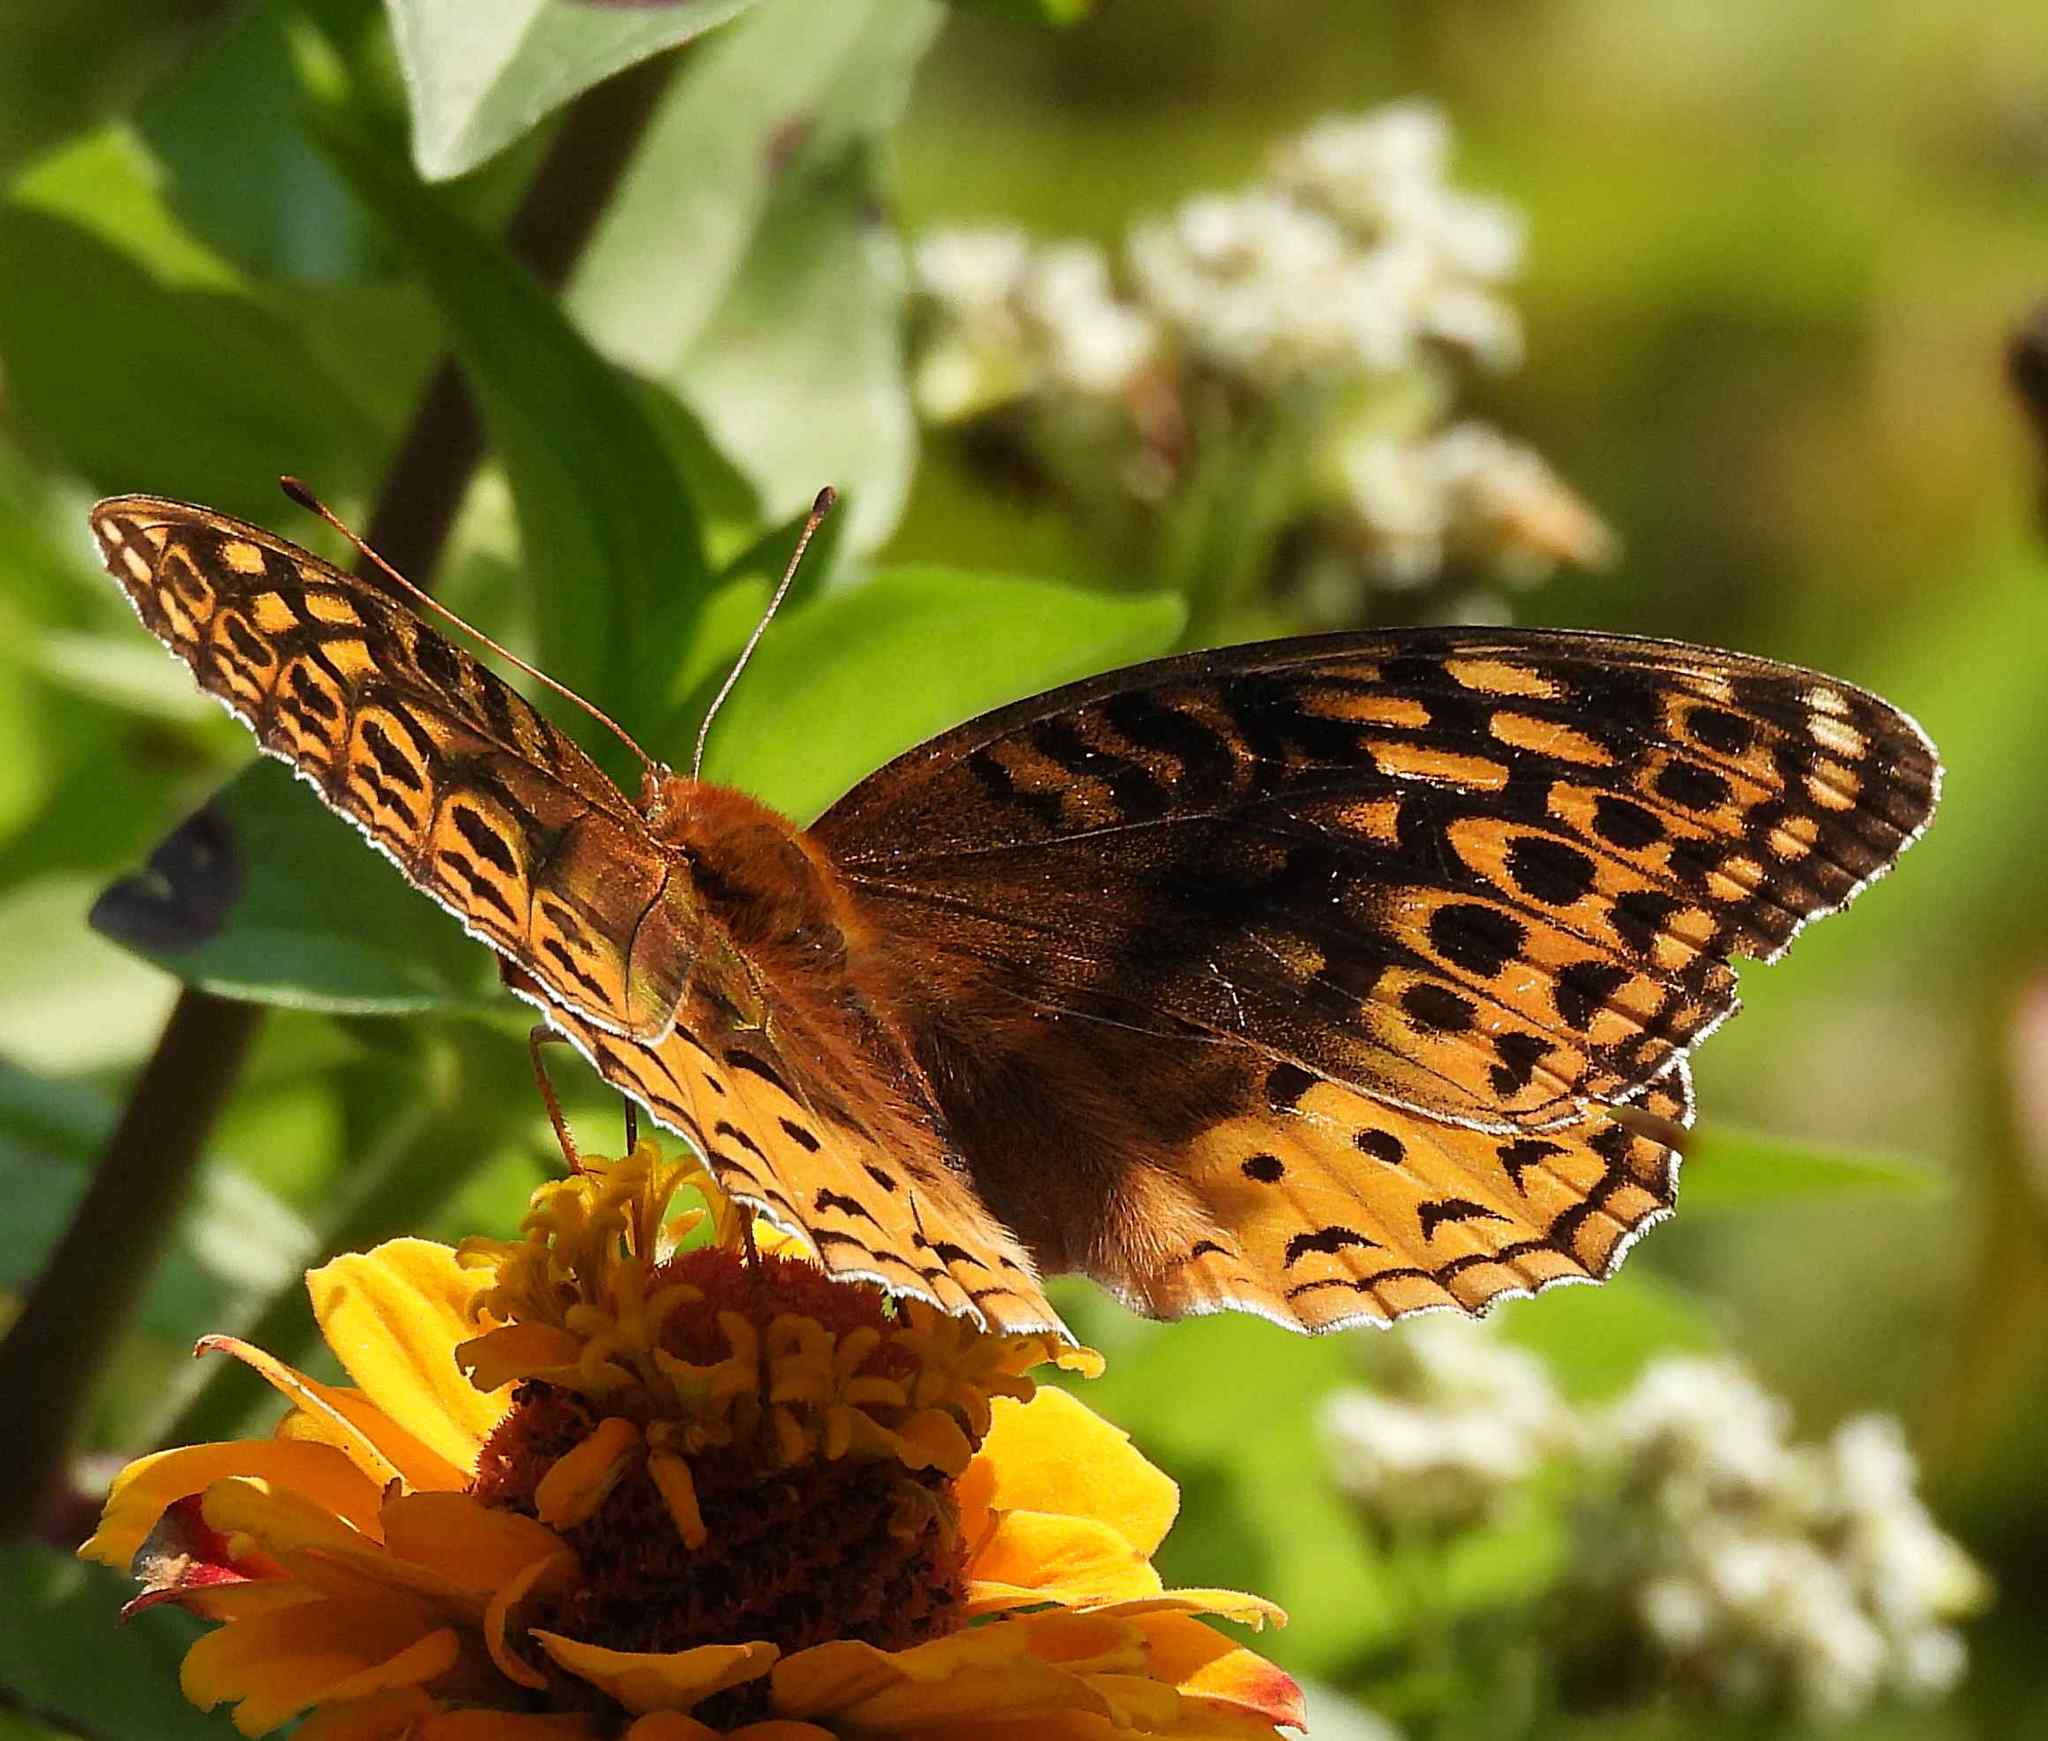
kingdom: Animalia
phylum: Arthropoda
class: Insecta
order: Lepidoptera
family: Nymphalidae
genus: Speyeria
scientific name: Speyeria cybele
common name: Great spangled fritillary
